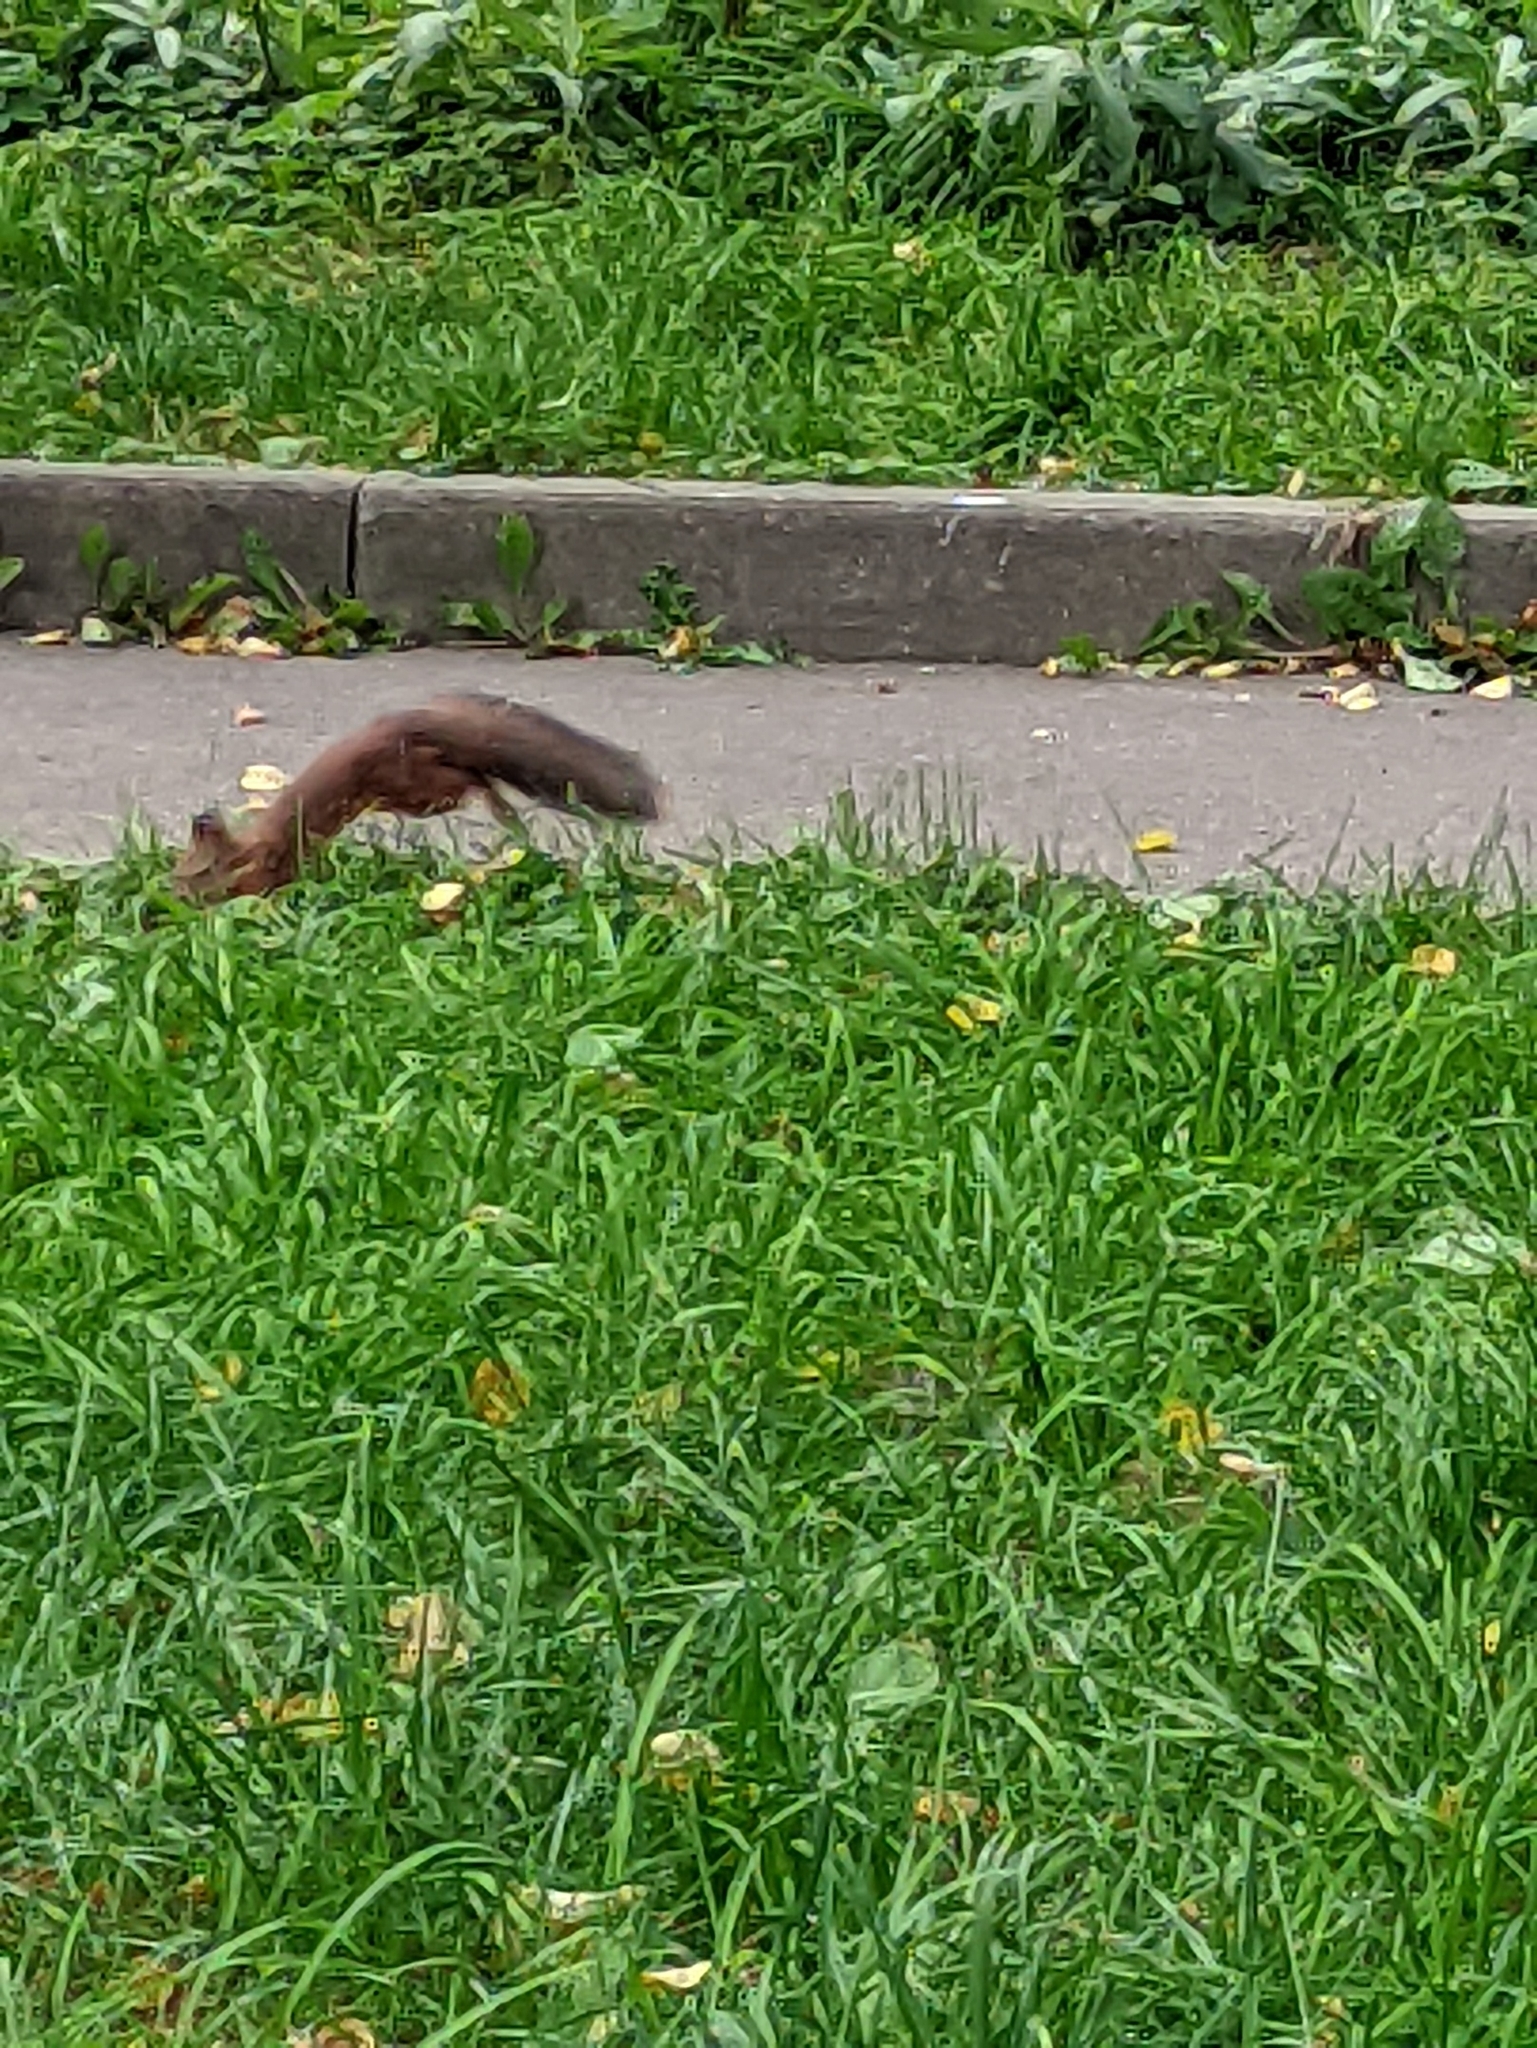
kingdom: Animalia
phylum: Chordata
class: Mammalia
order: Rodentia
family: Sciuridae
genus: Sciurus
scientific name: Sciurus vulgaris
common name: Eurasian red squirrel
